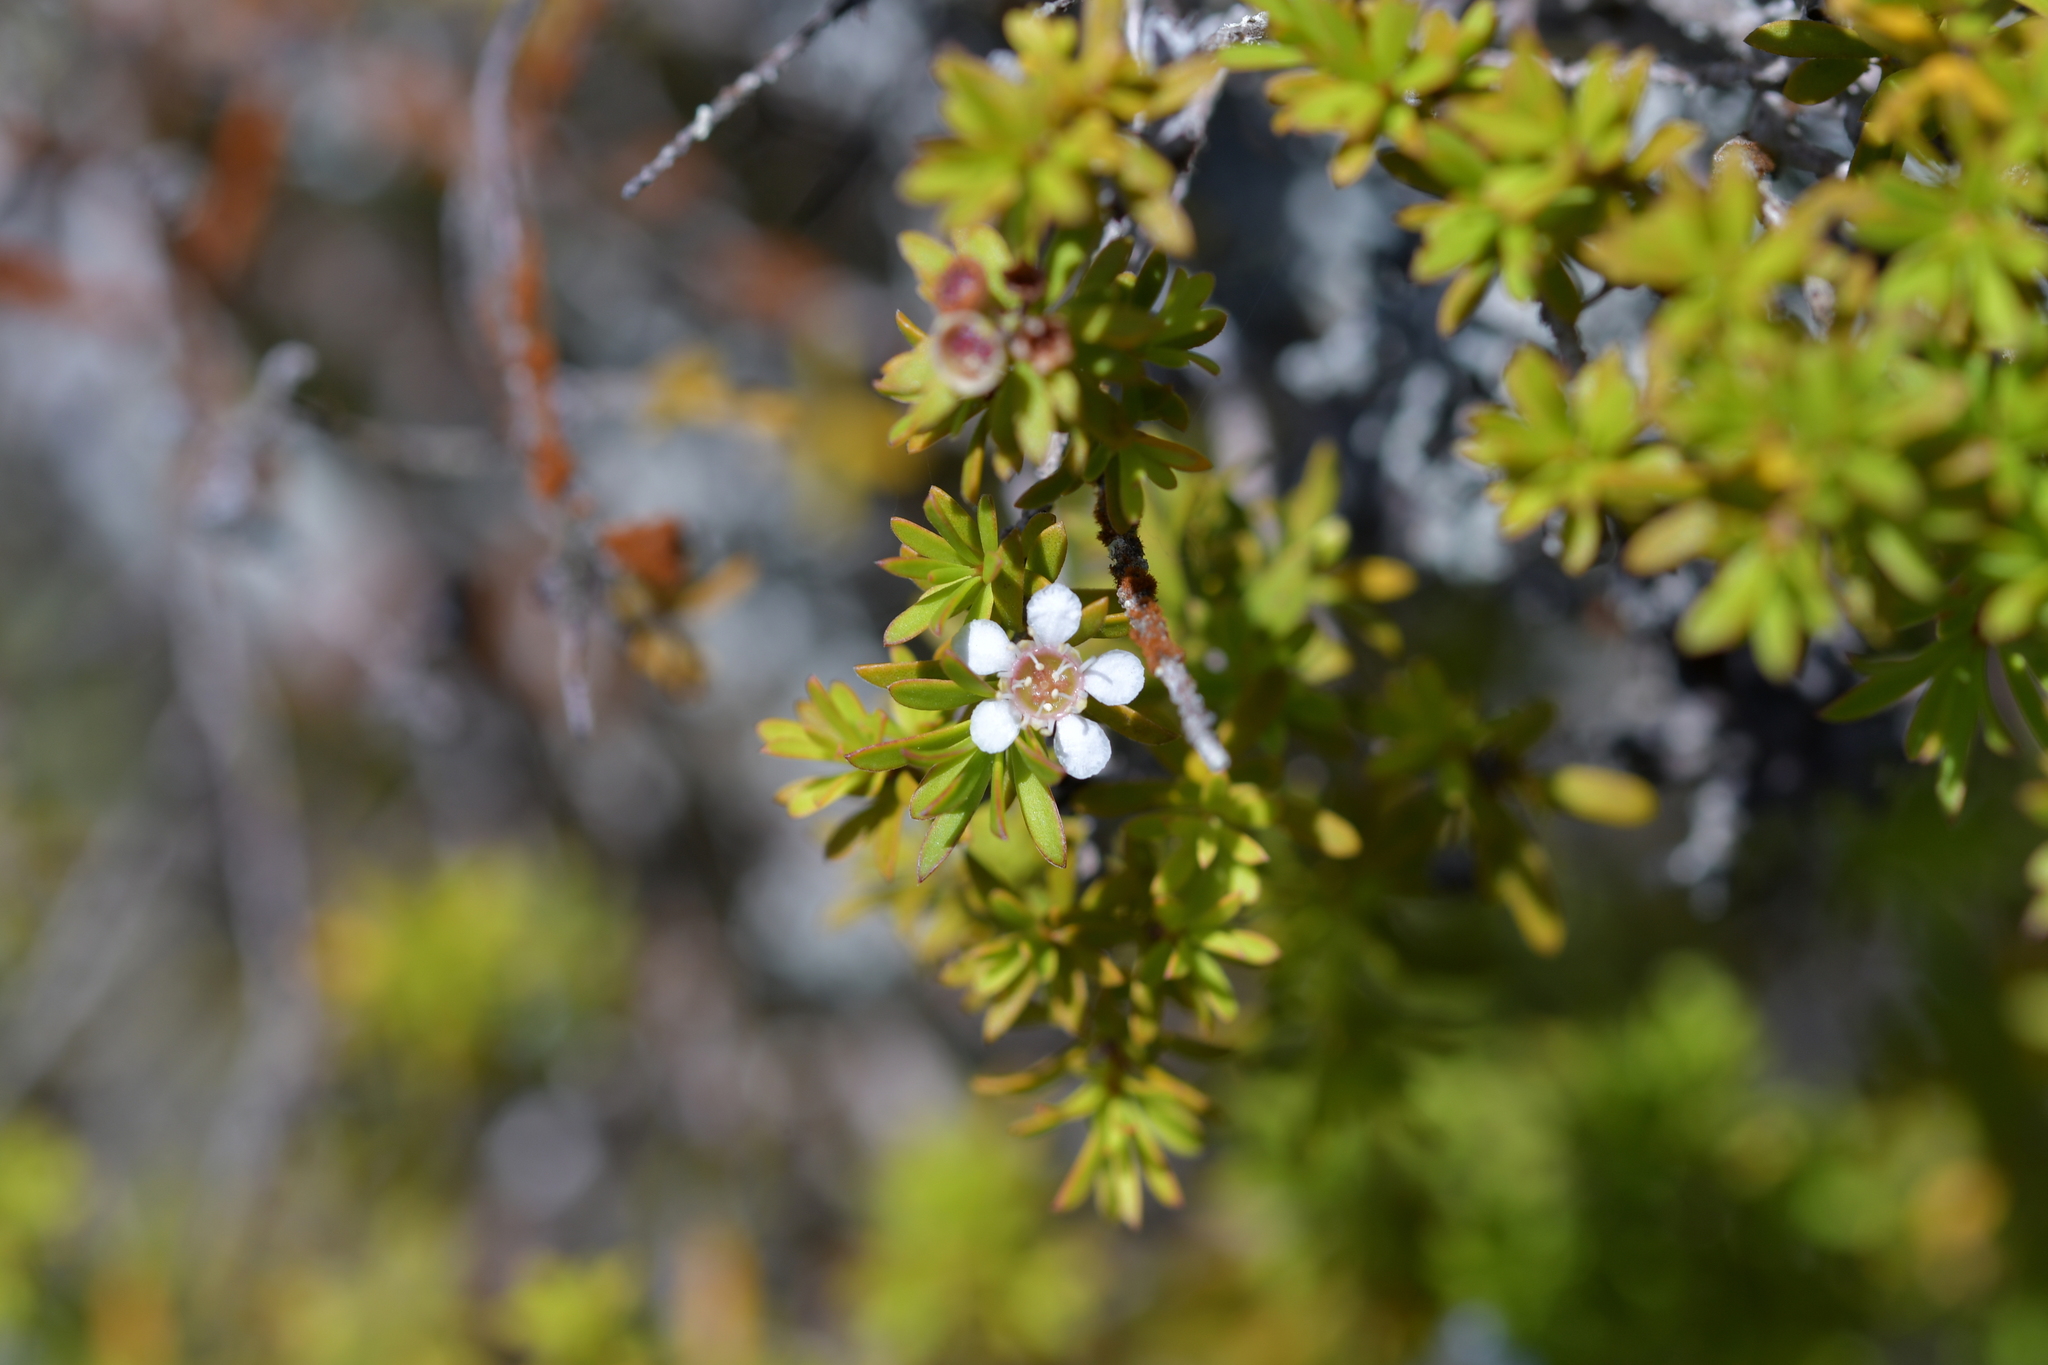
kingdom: Plantae
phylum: Tracheophyta
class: Magnoliopsida
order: Myrtales
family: Myrtaceae
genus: Leptospermum
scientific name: Leptospermum scoparium
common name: Broom tea-tree
